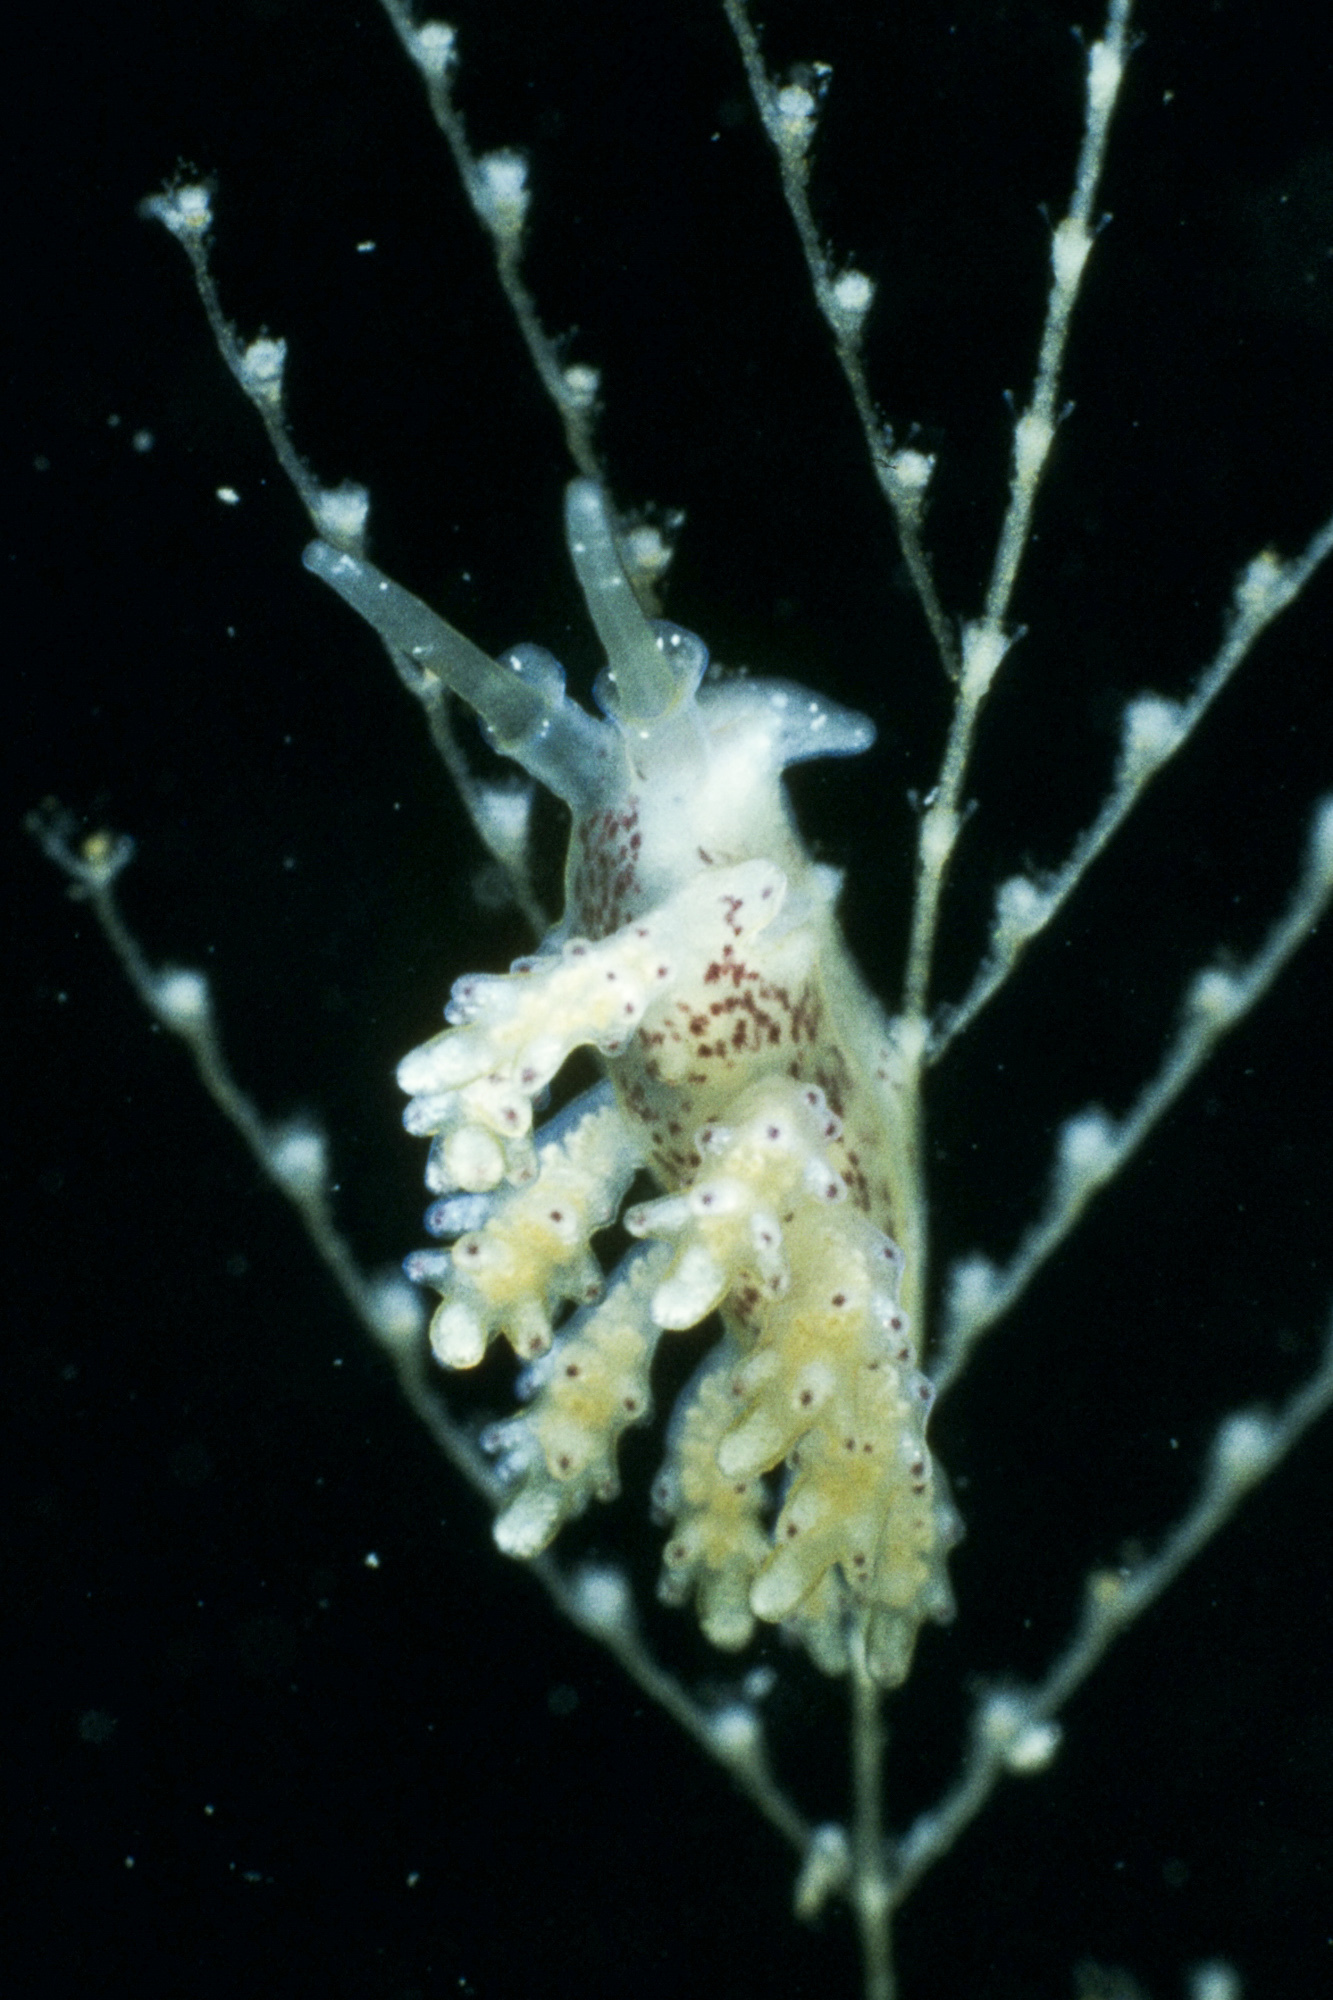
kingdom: Animalia
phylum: Mollusca
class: Gastropoda
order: Nudibranchia
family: Dotidae
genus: Doto
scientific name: Doto maculata
